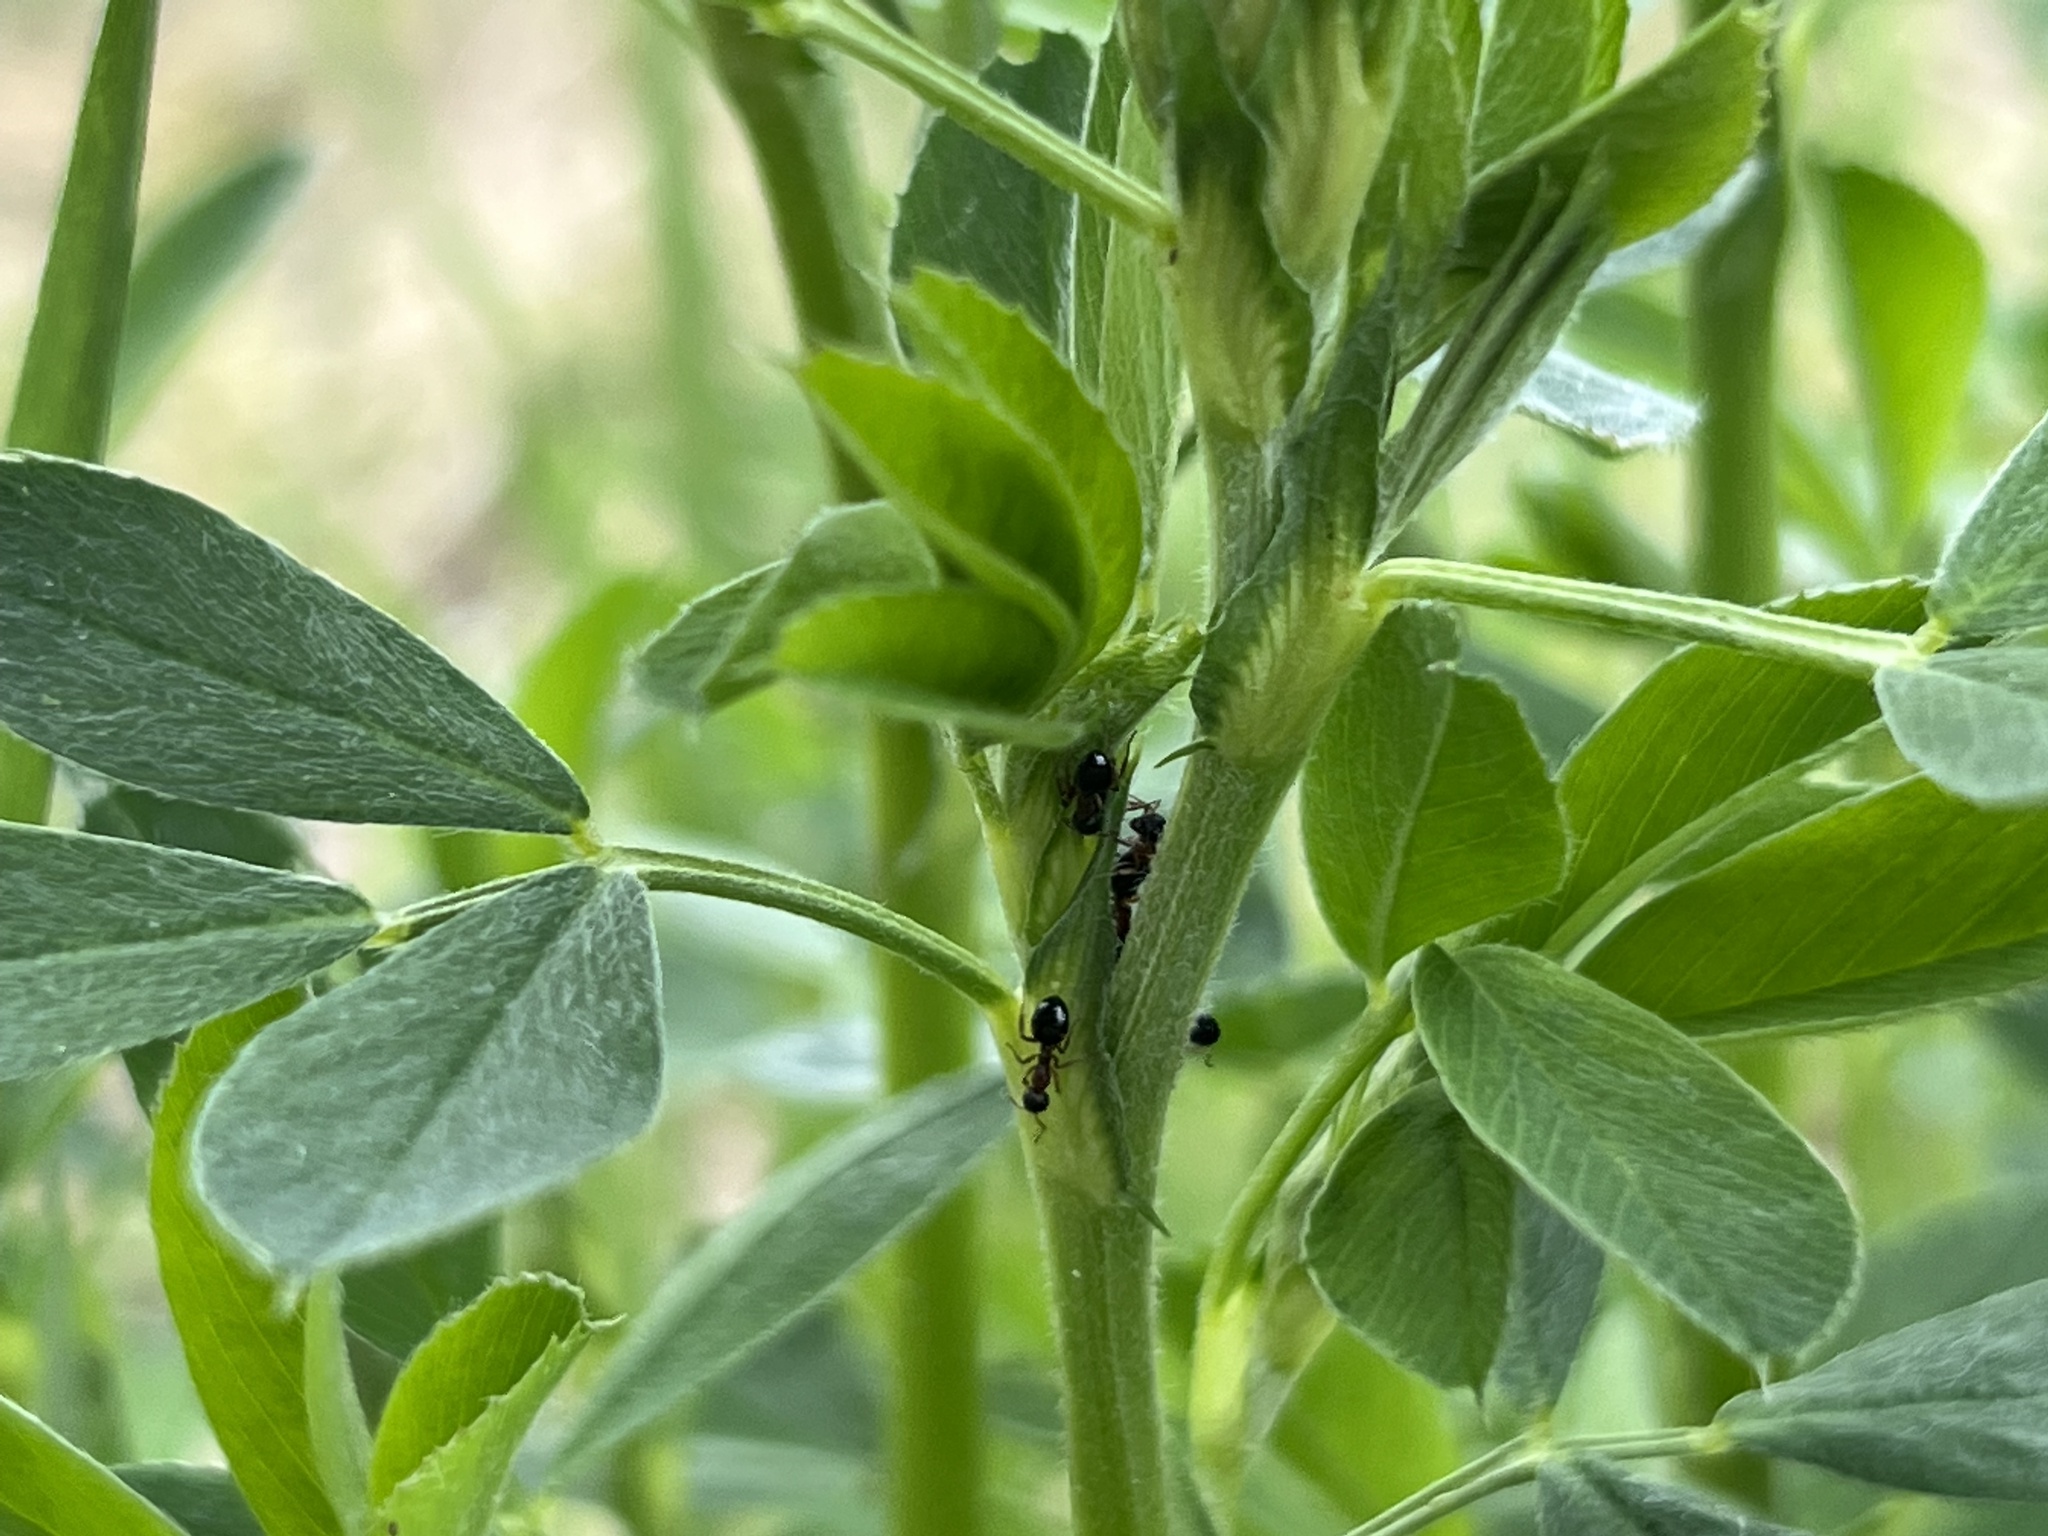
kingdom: Animalia
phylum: Arthropoda
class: Insecta
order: Hymenoptera
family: Formicidae
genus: Dolichoderus
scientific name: Dolichoderus plagiatus
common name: Mottled dolichoderus
